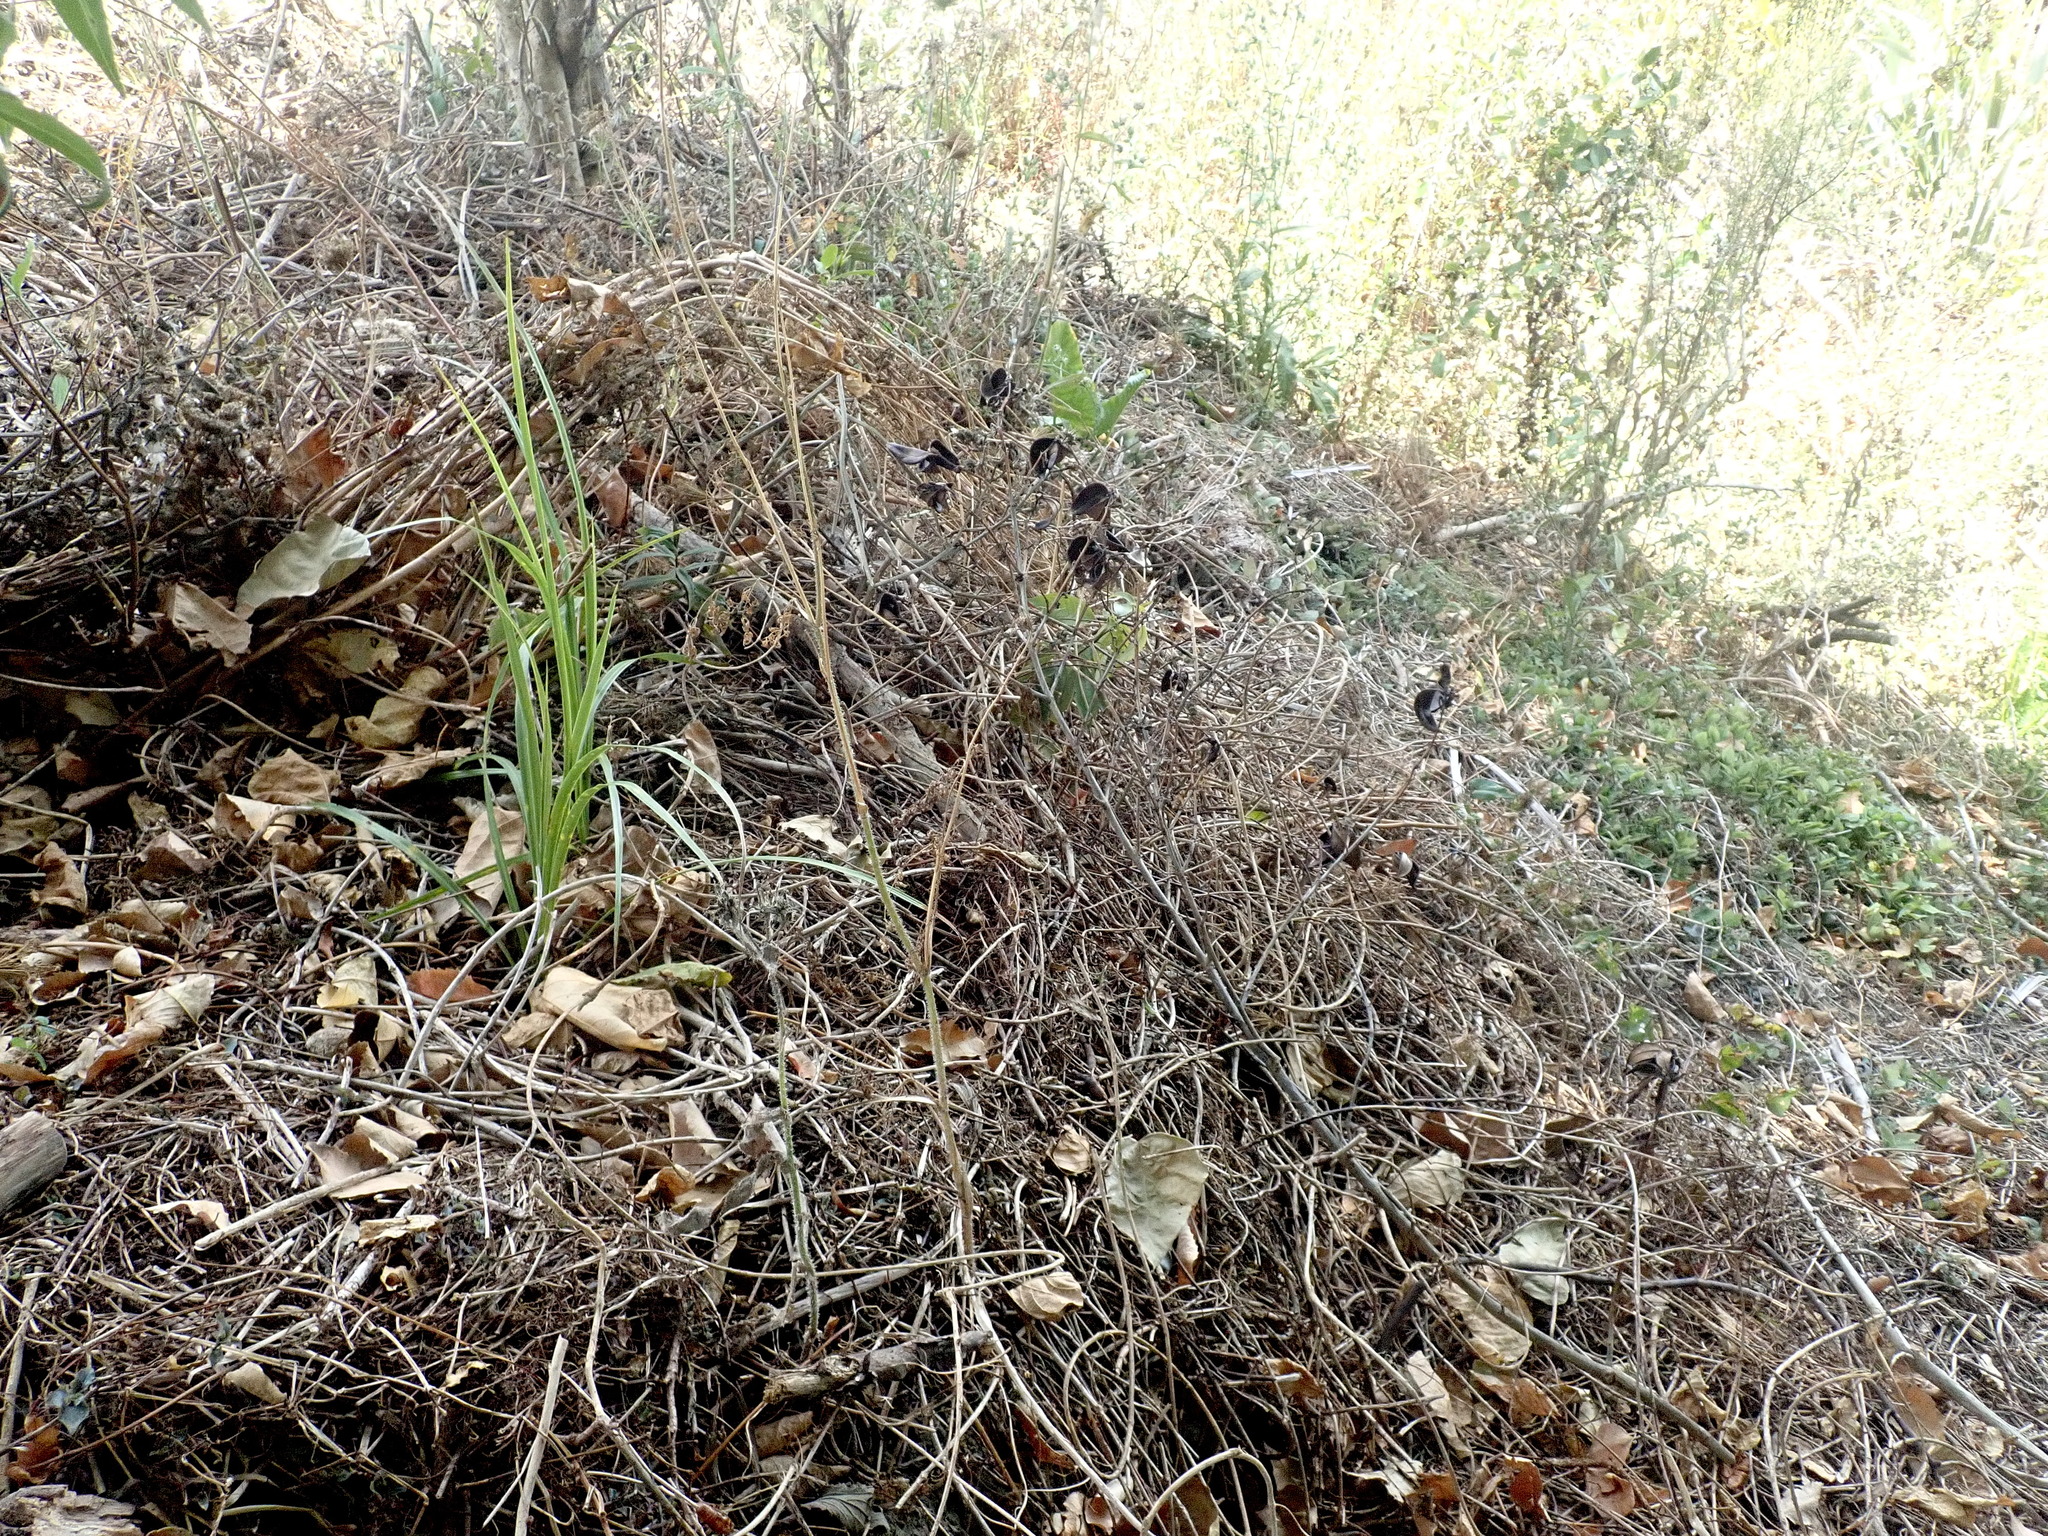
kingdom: Plantae
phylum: Tracheophyta
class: Liliopsida
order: Asparagales
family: Asparagaceae
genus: Cordyline
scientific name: Cordyline australis
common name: Cabbage-palm
